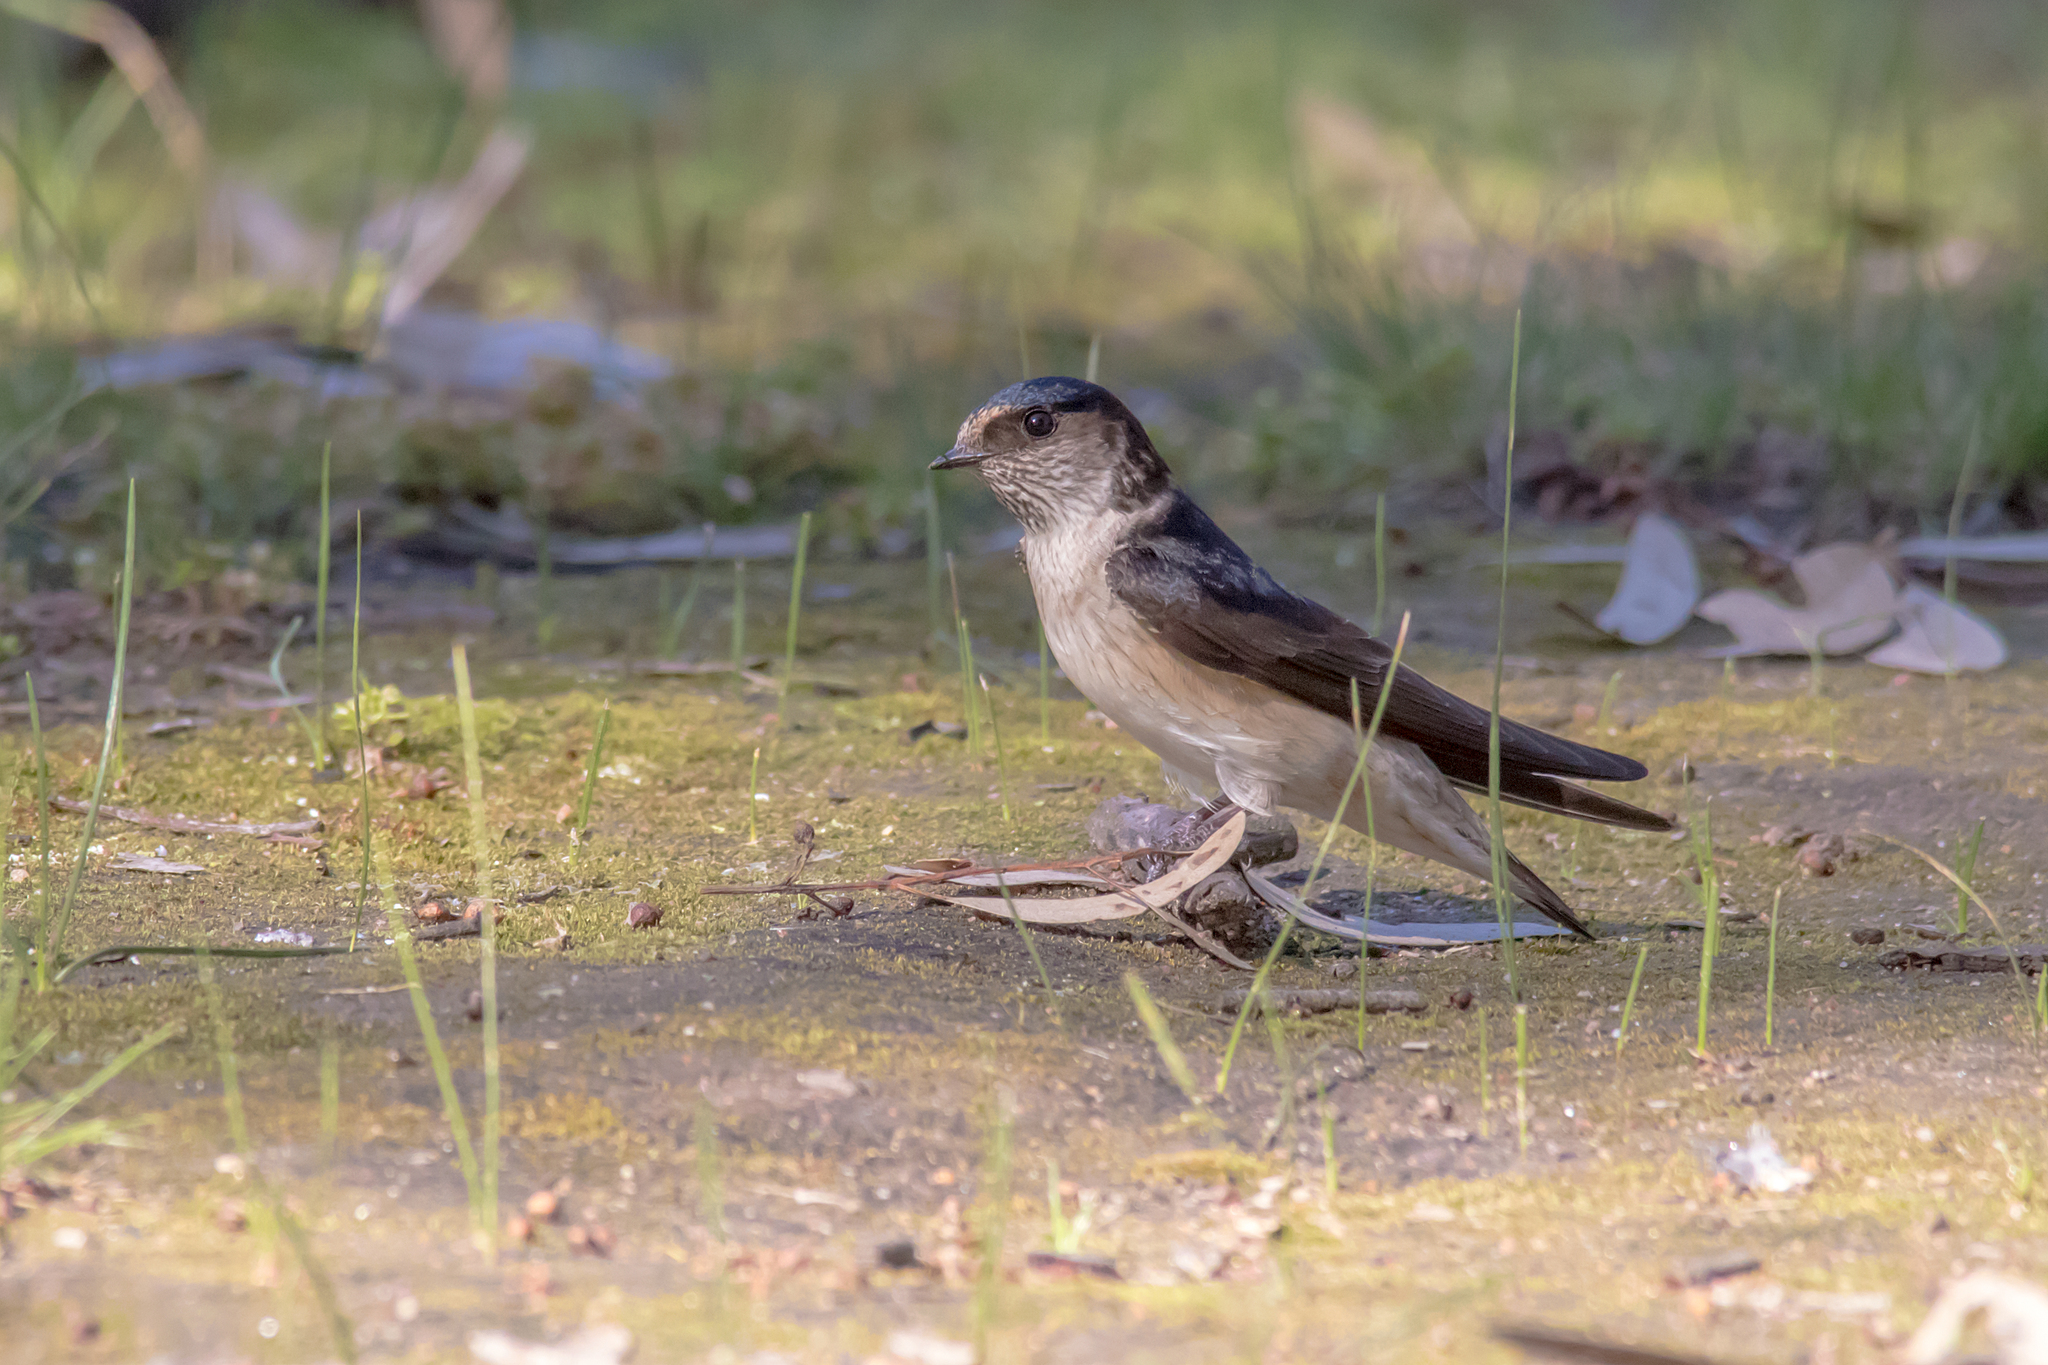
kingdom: Animalia
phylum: Chordata
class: Aves
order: Passeriformes
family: Hirundinidae
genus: Petrochelidon
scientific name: Petrochelidon nigricans
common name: Tree martin
